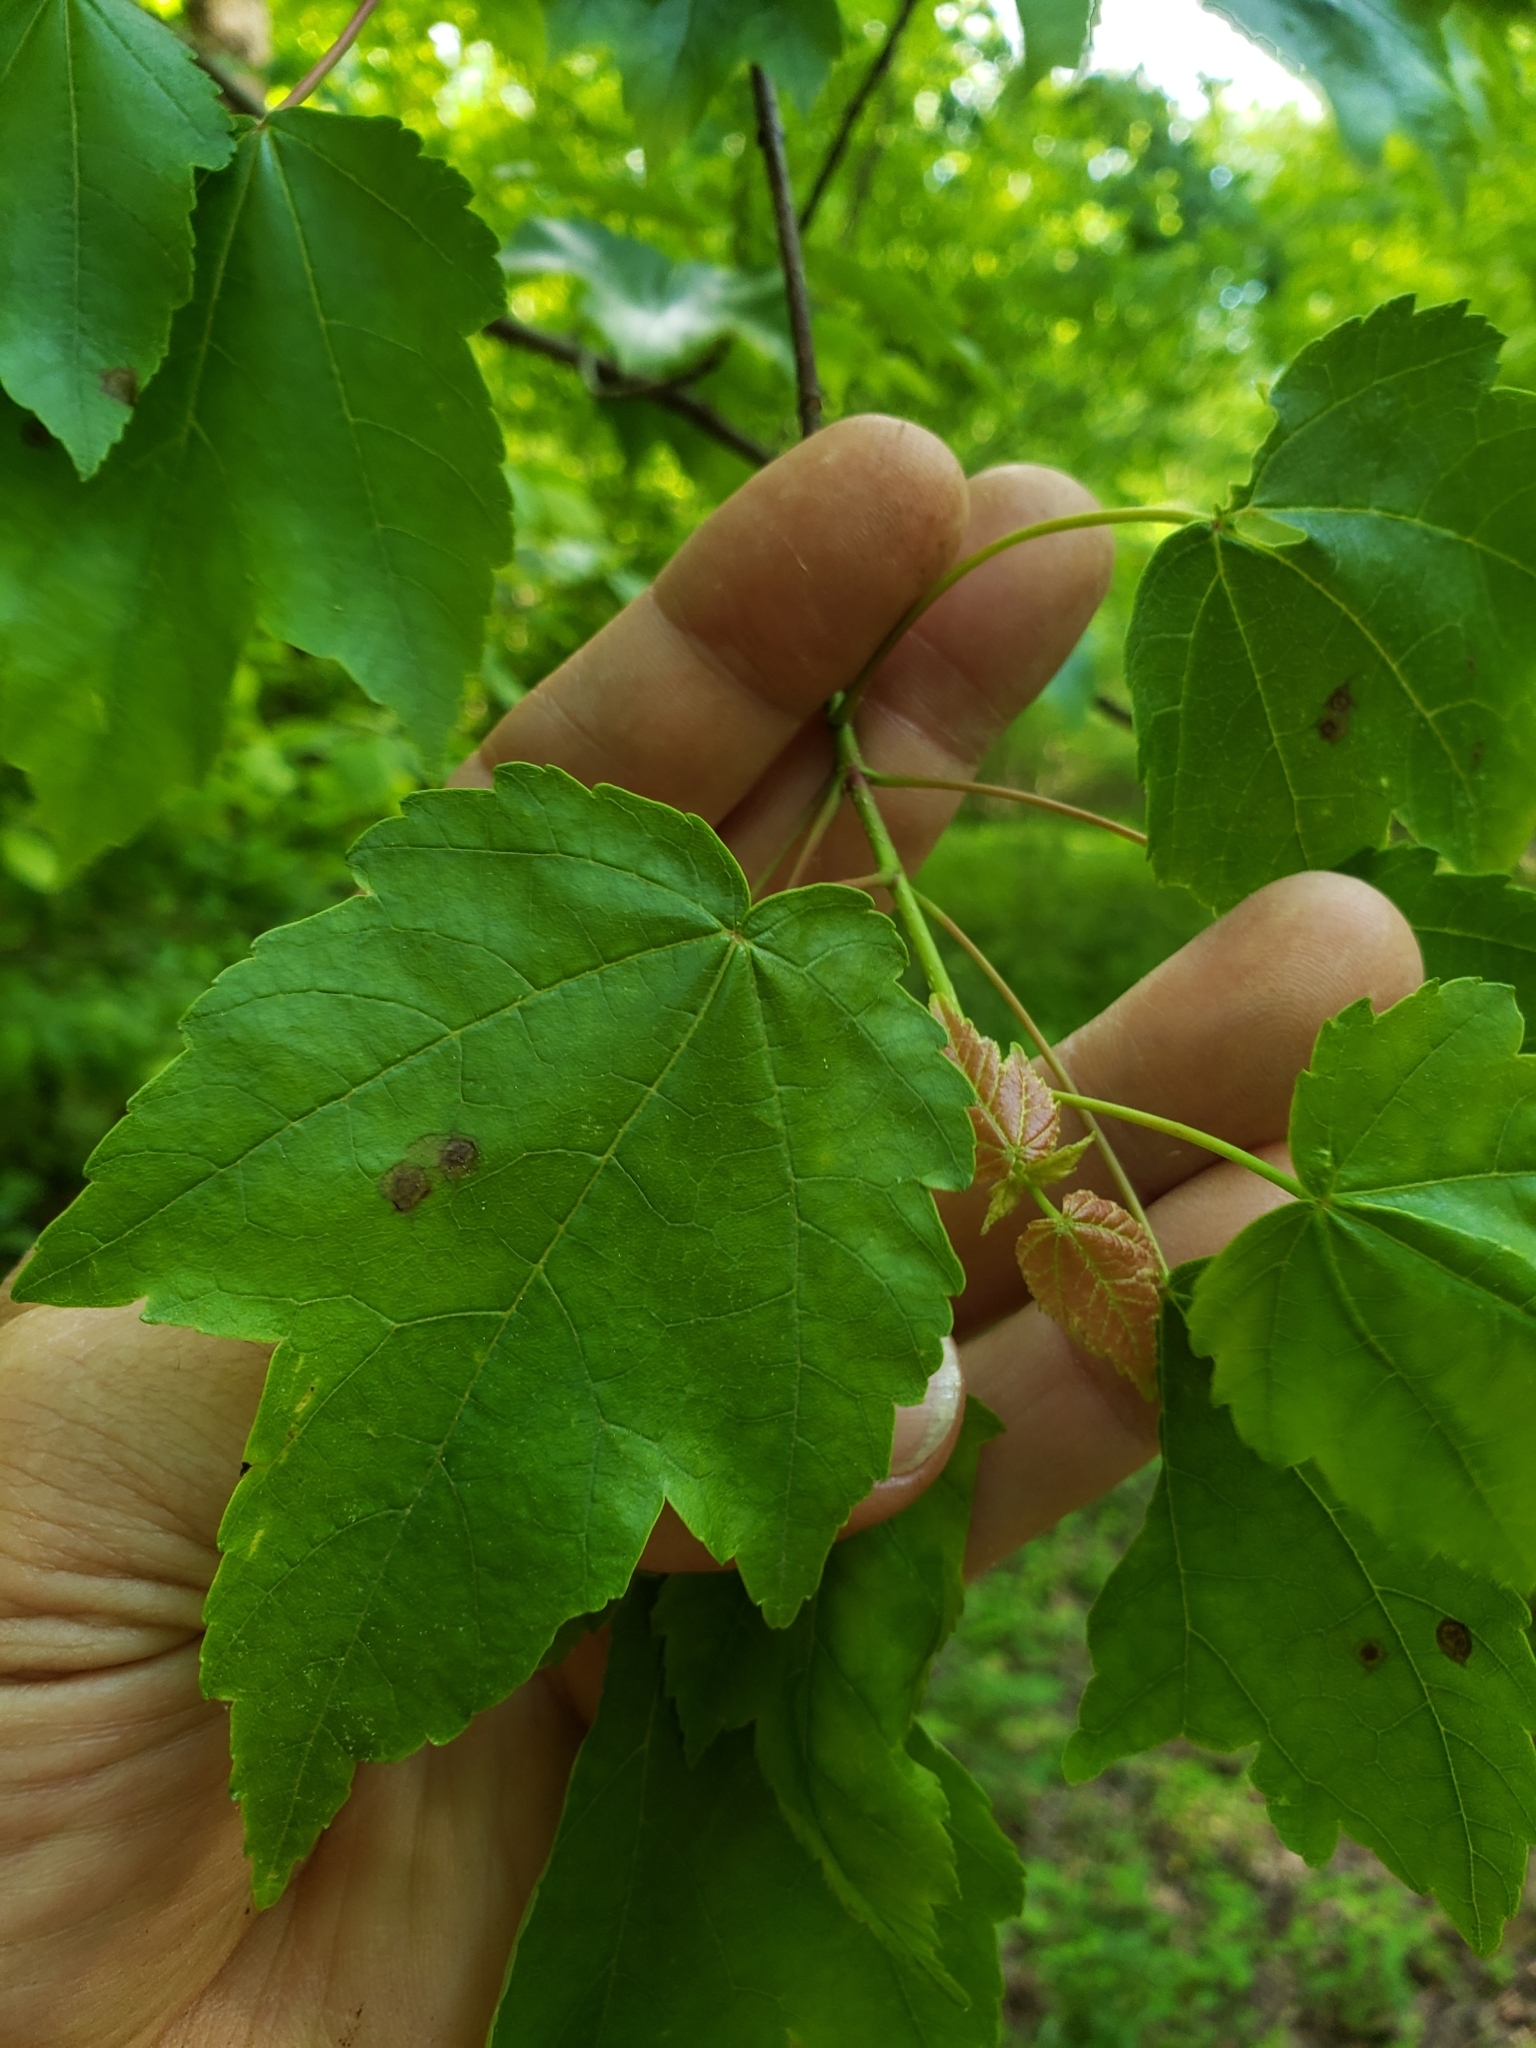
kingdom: Animalia
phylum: Arthropoda
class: Insecta
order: Diptera
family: Cecidomyiidae
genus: Acericecis
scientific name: Acericecis ocellaris
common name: Ocellate gall midge
